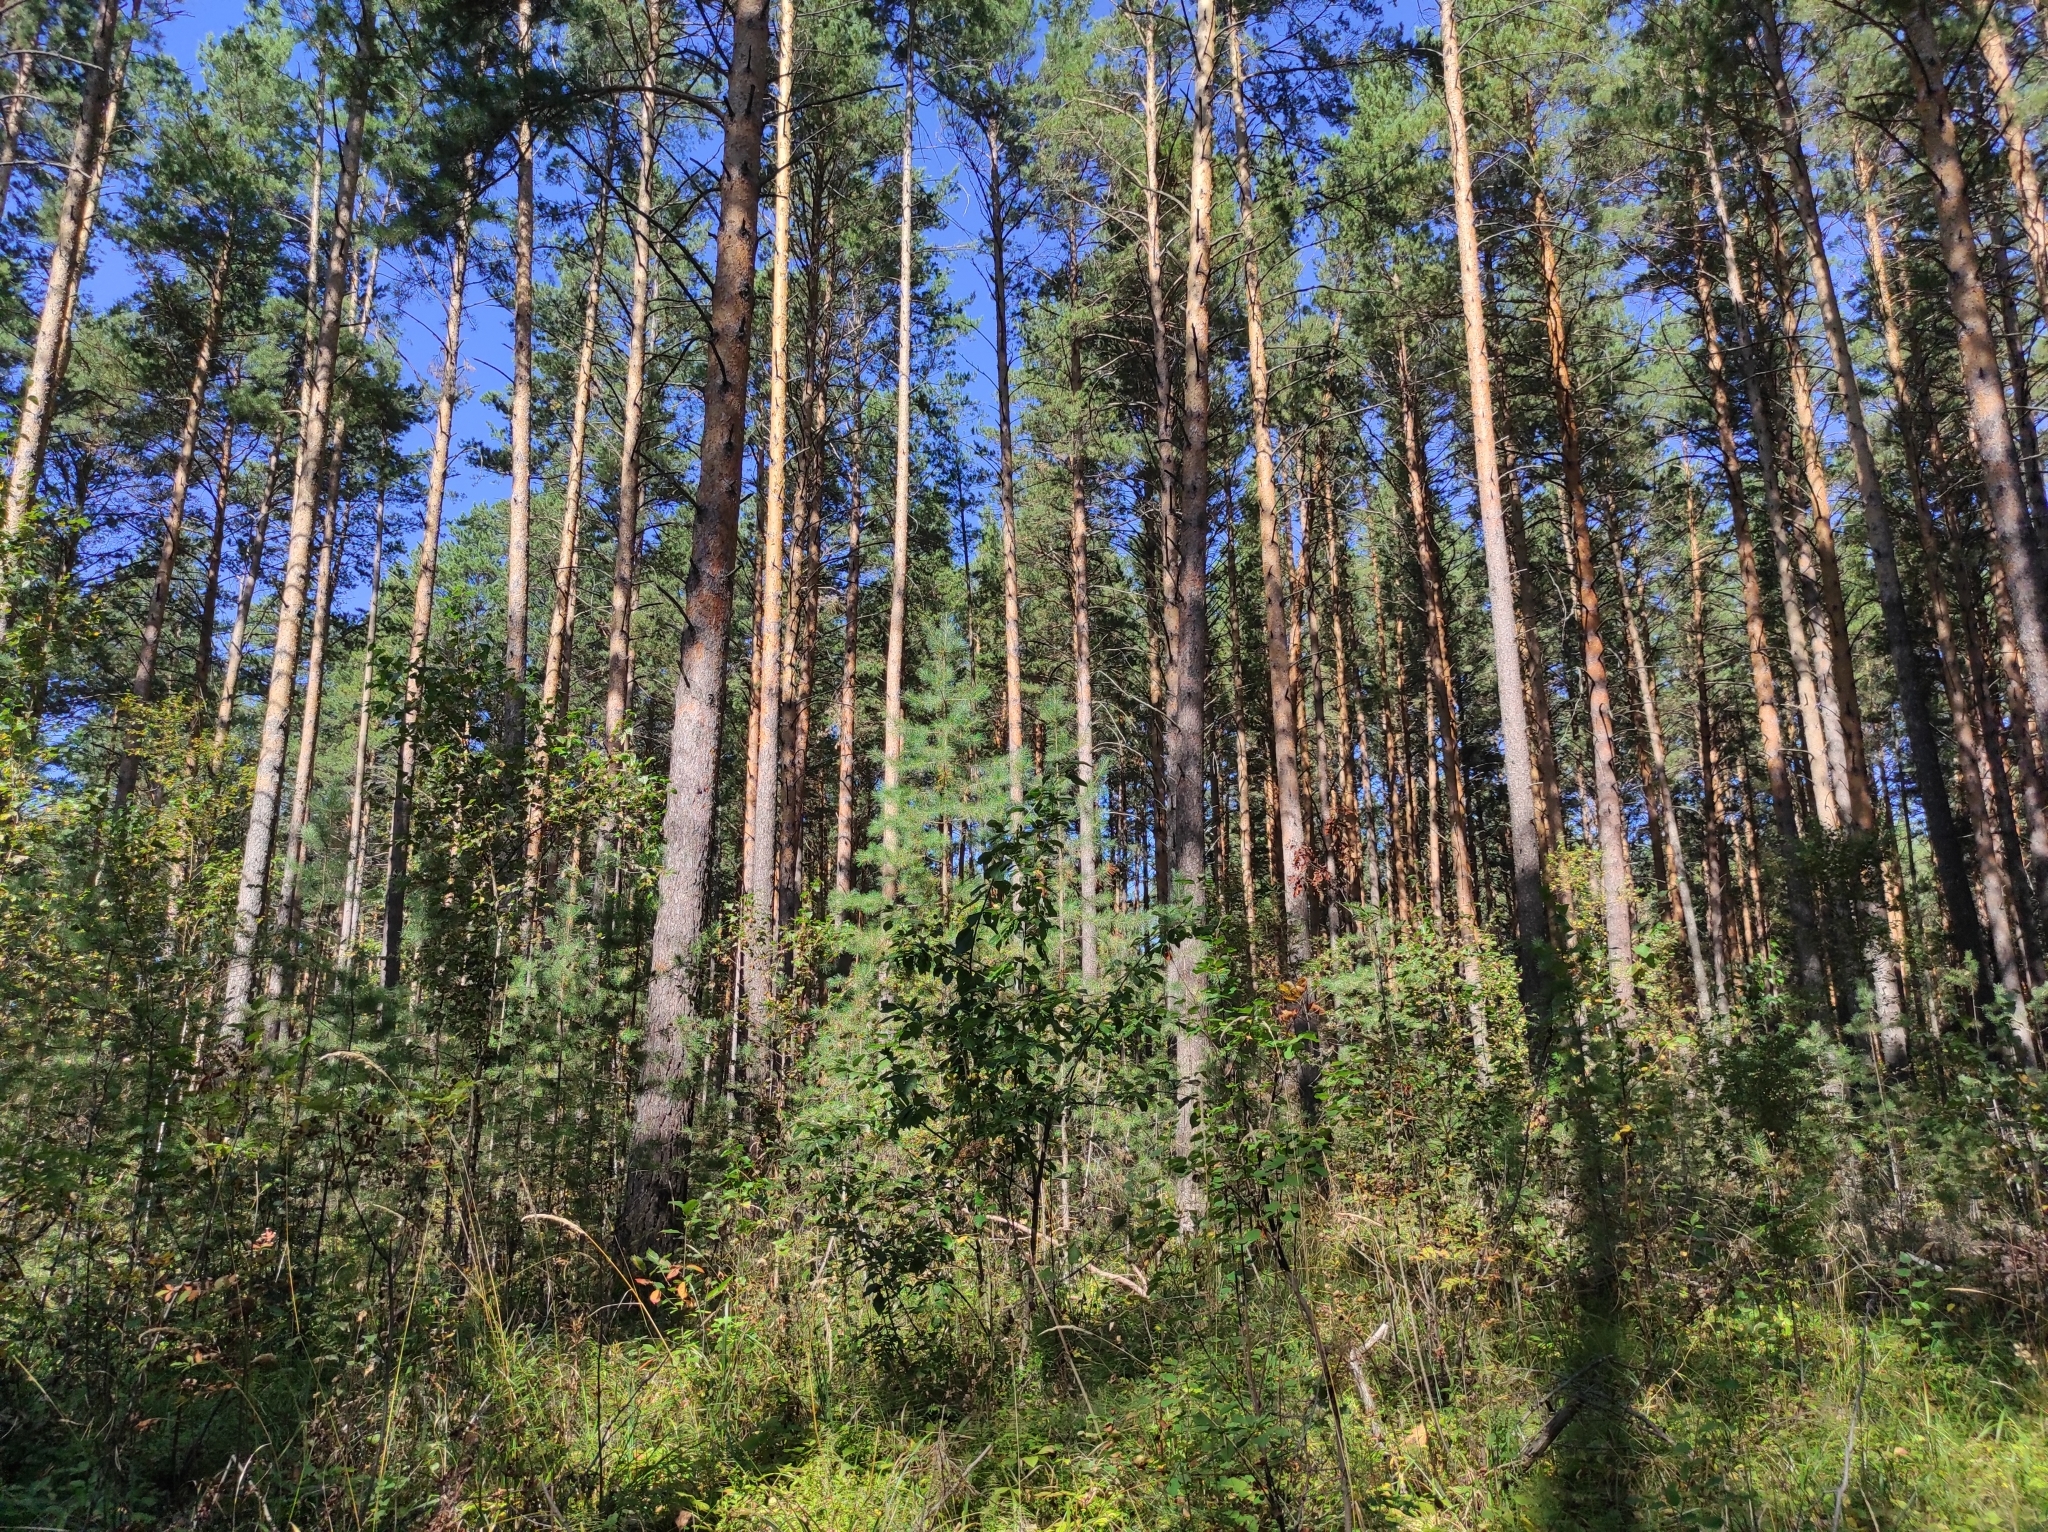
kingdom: Plantae
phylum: Tracheophyta
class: Pinopsida
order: Pinales
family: Pinaceae
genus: Pinus
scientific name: Pinus sylvestris
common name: Scots pine
